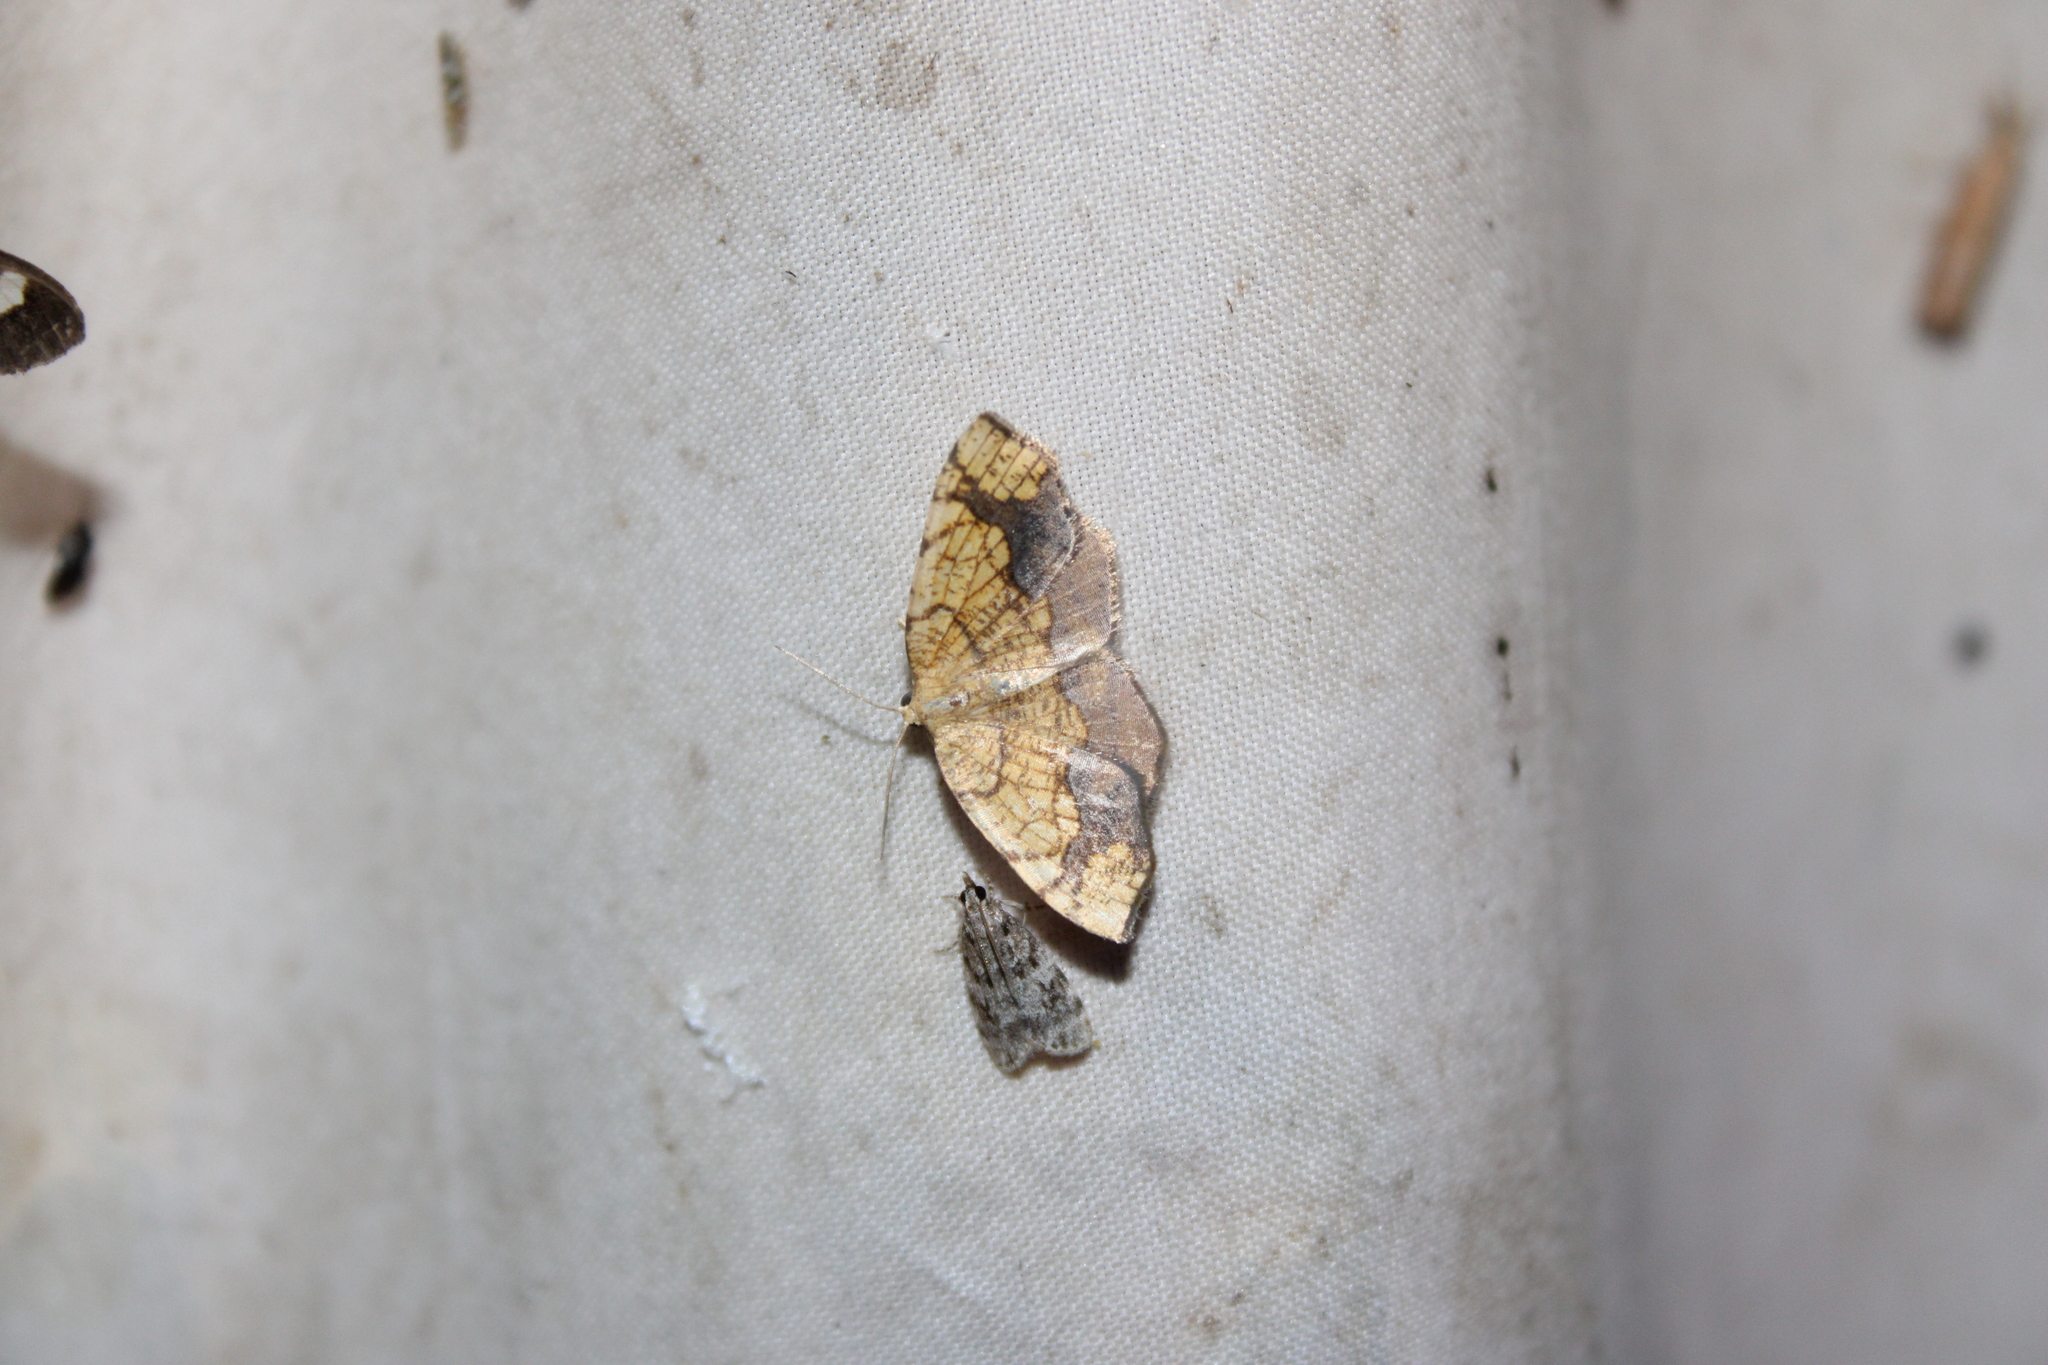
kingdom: Animalia
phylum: Arthropoda
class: Insecta
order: Lepidoptera
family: Geometridae
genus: Nematocampa
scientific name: Nematocampa resistaria
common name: Horned spanworm moth
